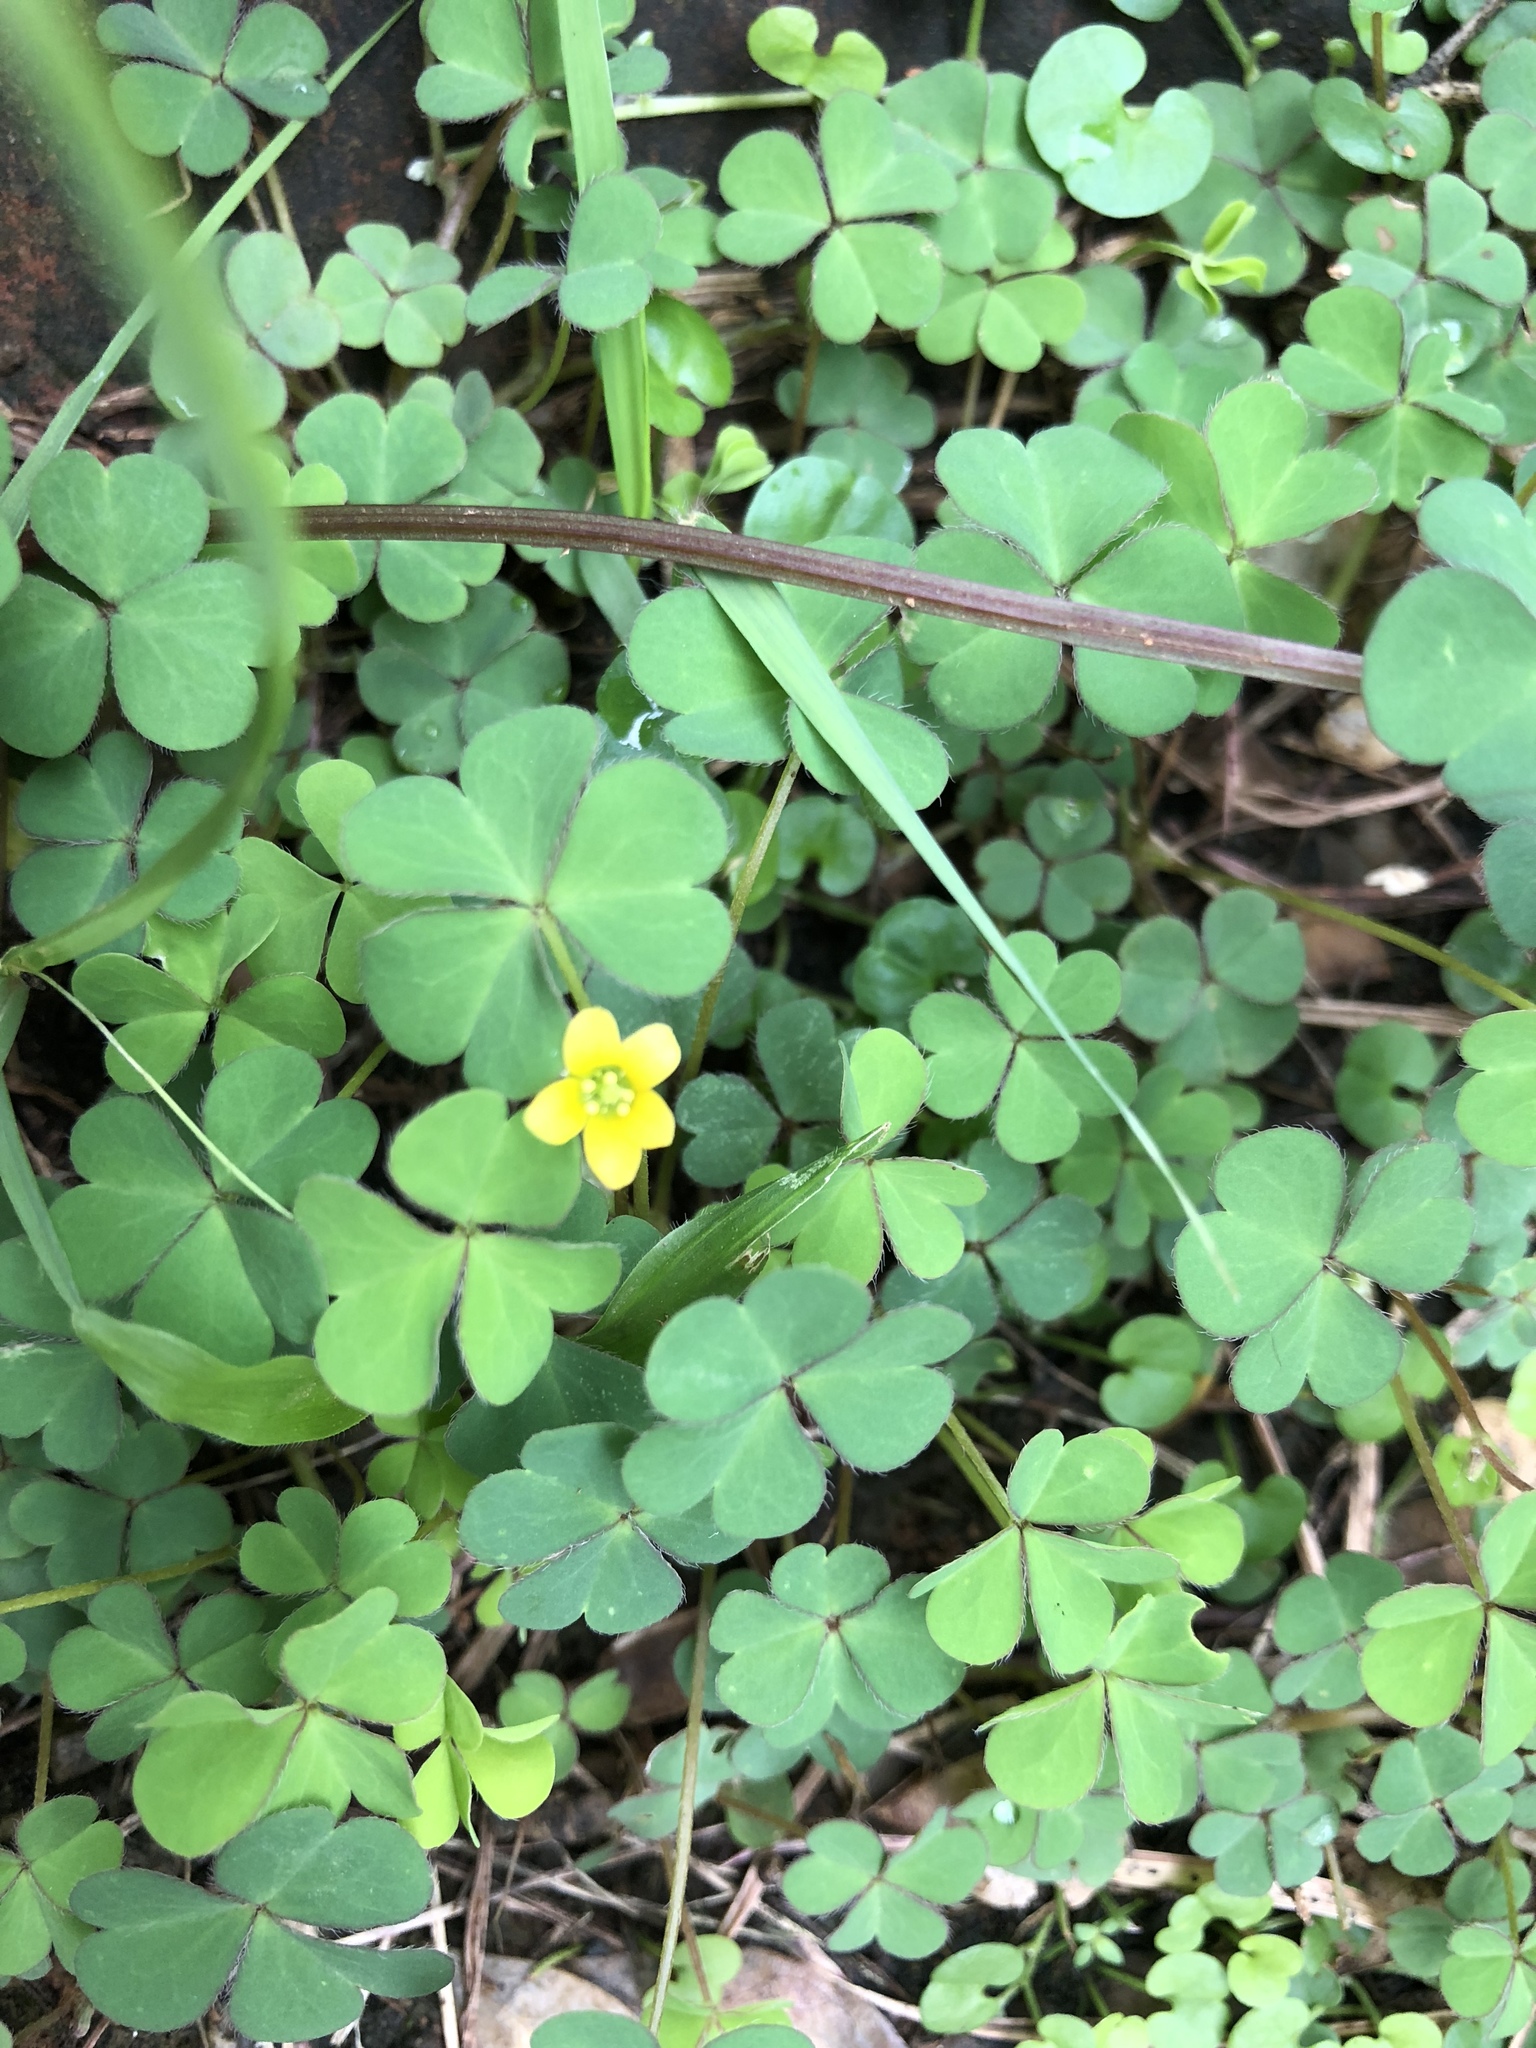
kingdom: Plantae
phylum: Tracheophyta
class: Magnoliopsida
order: Oxalidales
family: Oxalidaceae
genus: Oxalis
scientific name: Oxalis corniculata
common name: Procumbent yellow-sorrel
